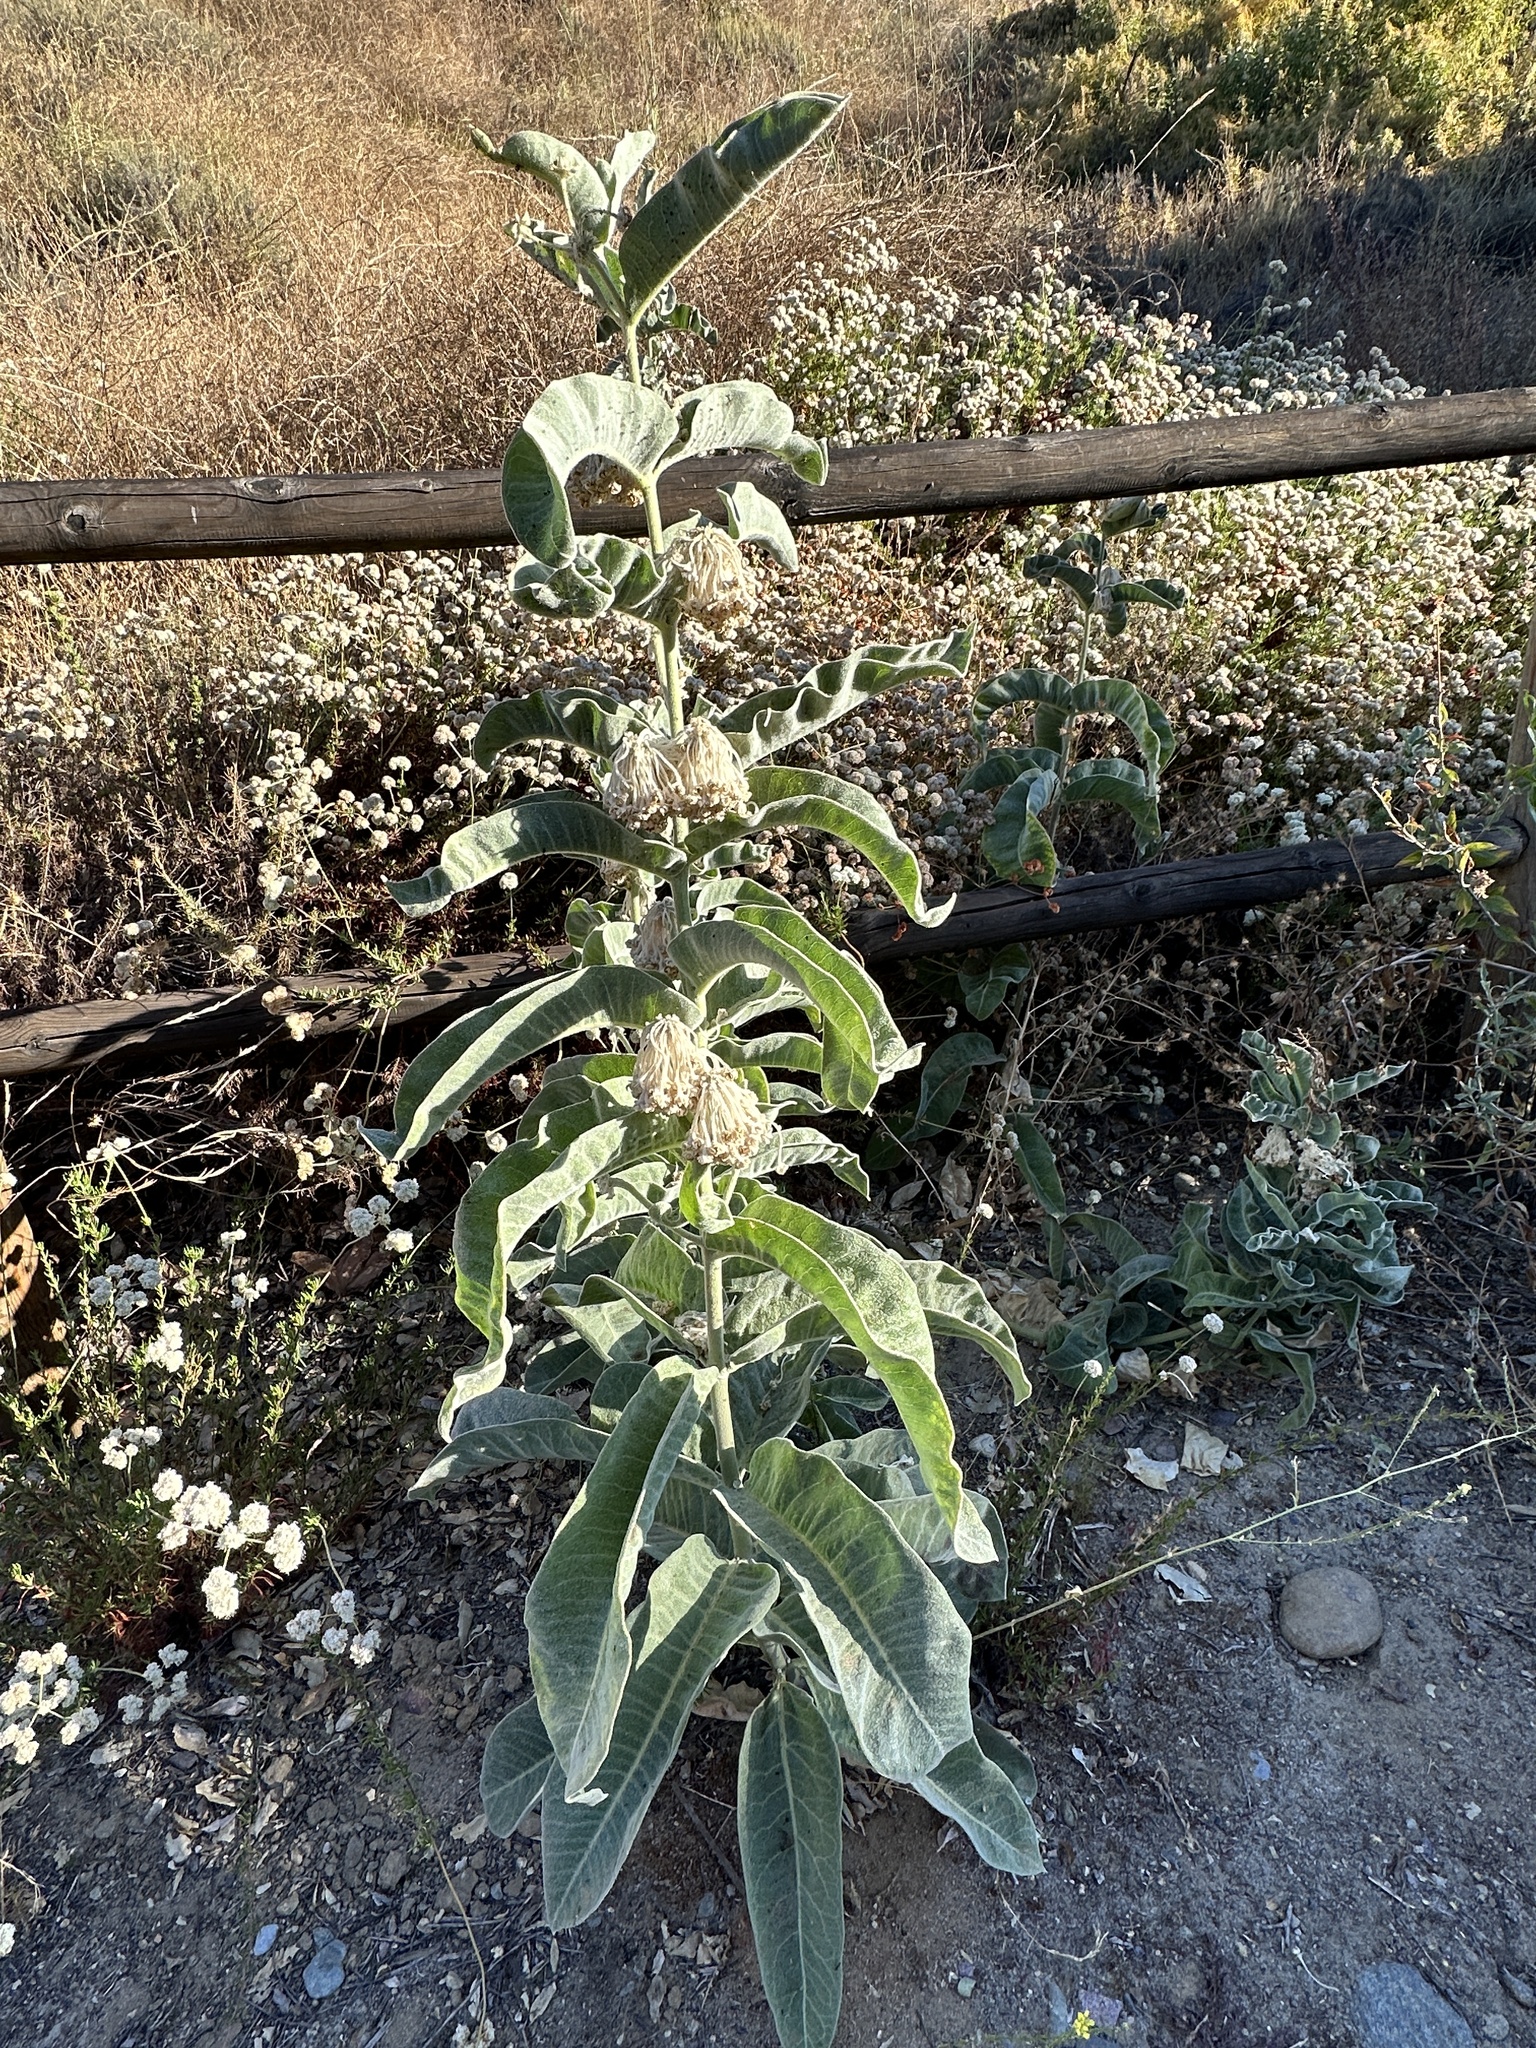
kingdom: Plantae
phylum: Tracheophyta
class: Magnoliopsida
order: Gentianales
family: Apocynaceae
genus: Asclepias
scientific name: Asclepias eriocarpa
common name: Indian milkweed
